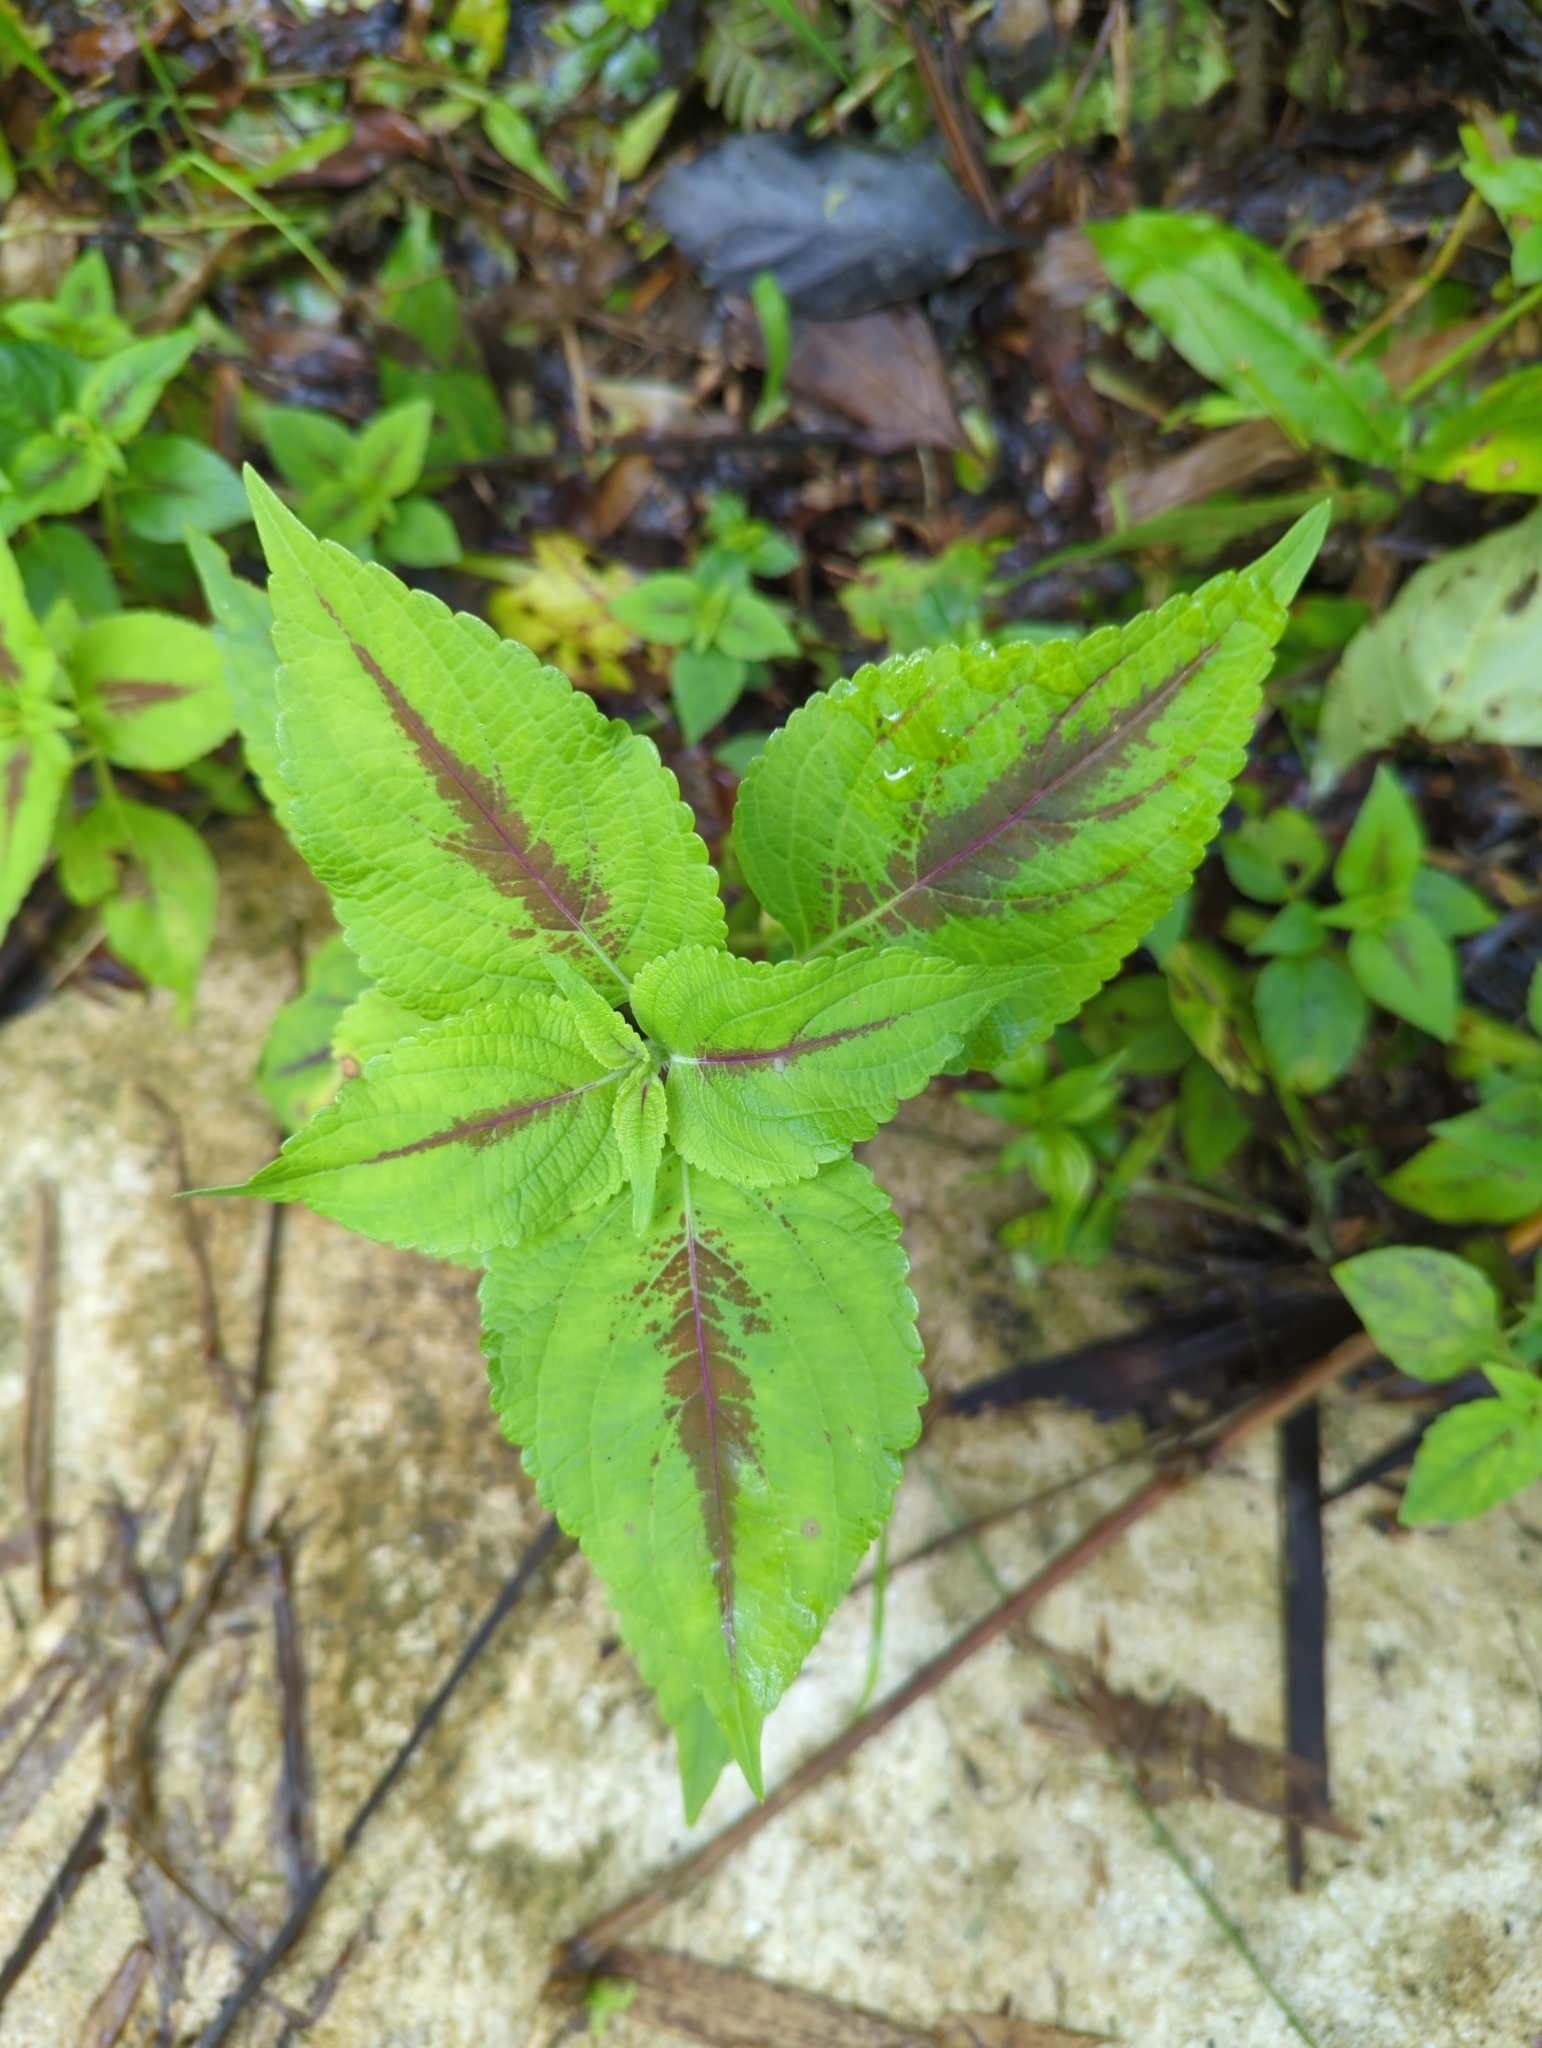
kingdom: Plantae
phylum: Tracheophyta
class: Magnoliopsida
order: Lamiales
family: Lamiaceae
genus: Coleus
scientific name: Coleus scutellarioides
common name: Coleus
